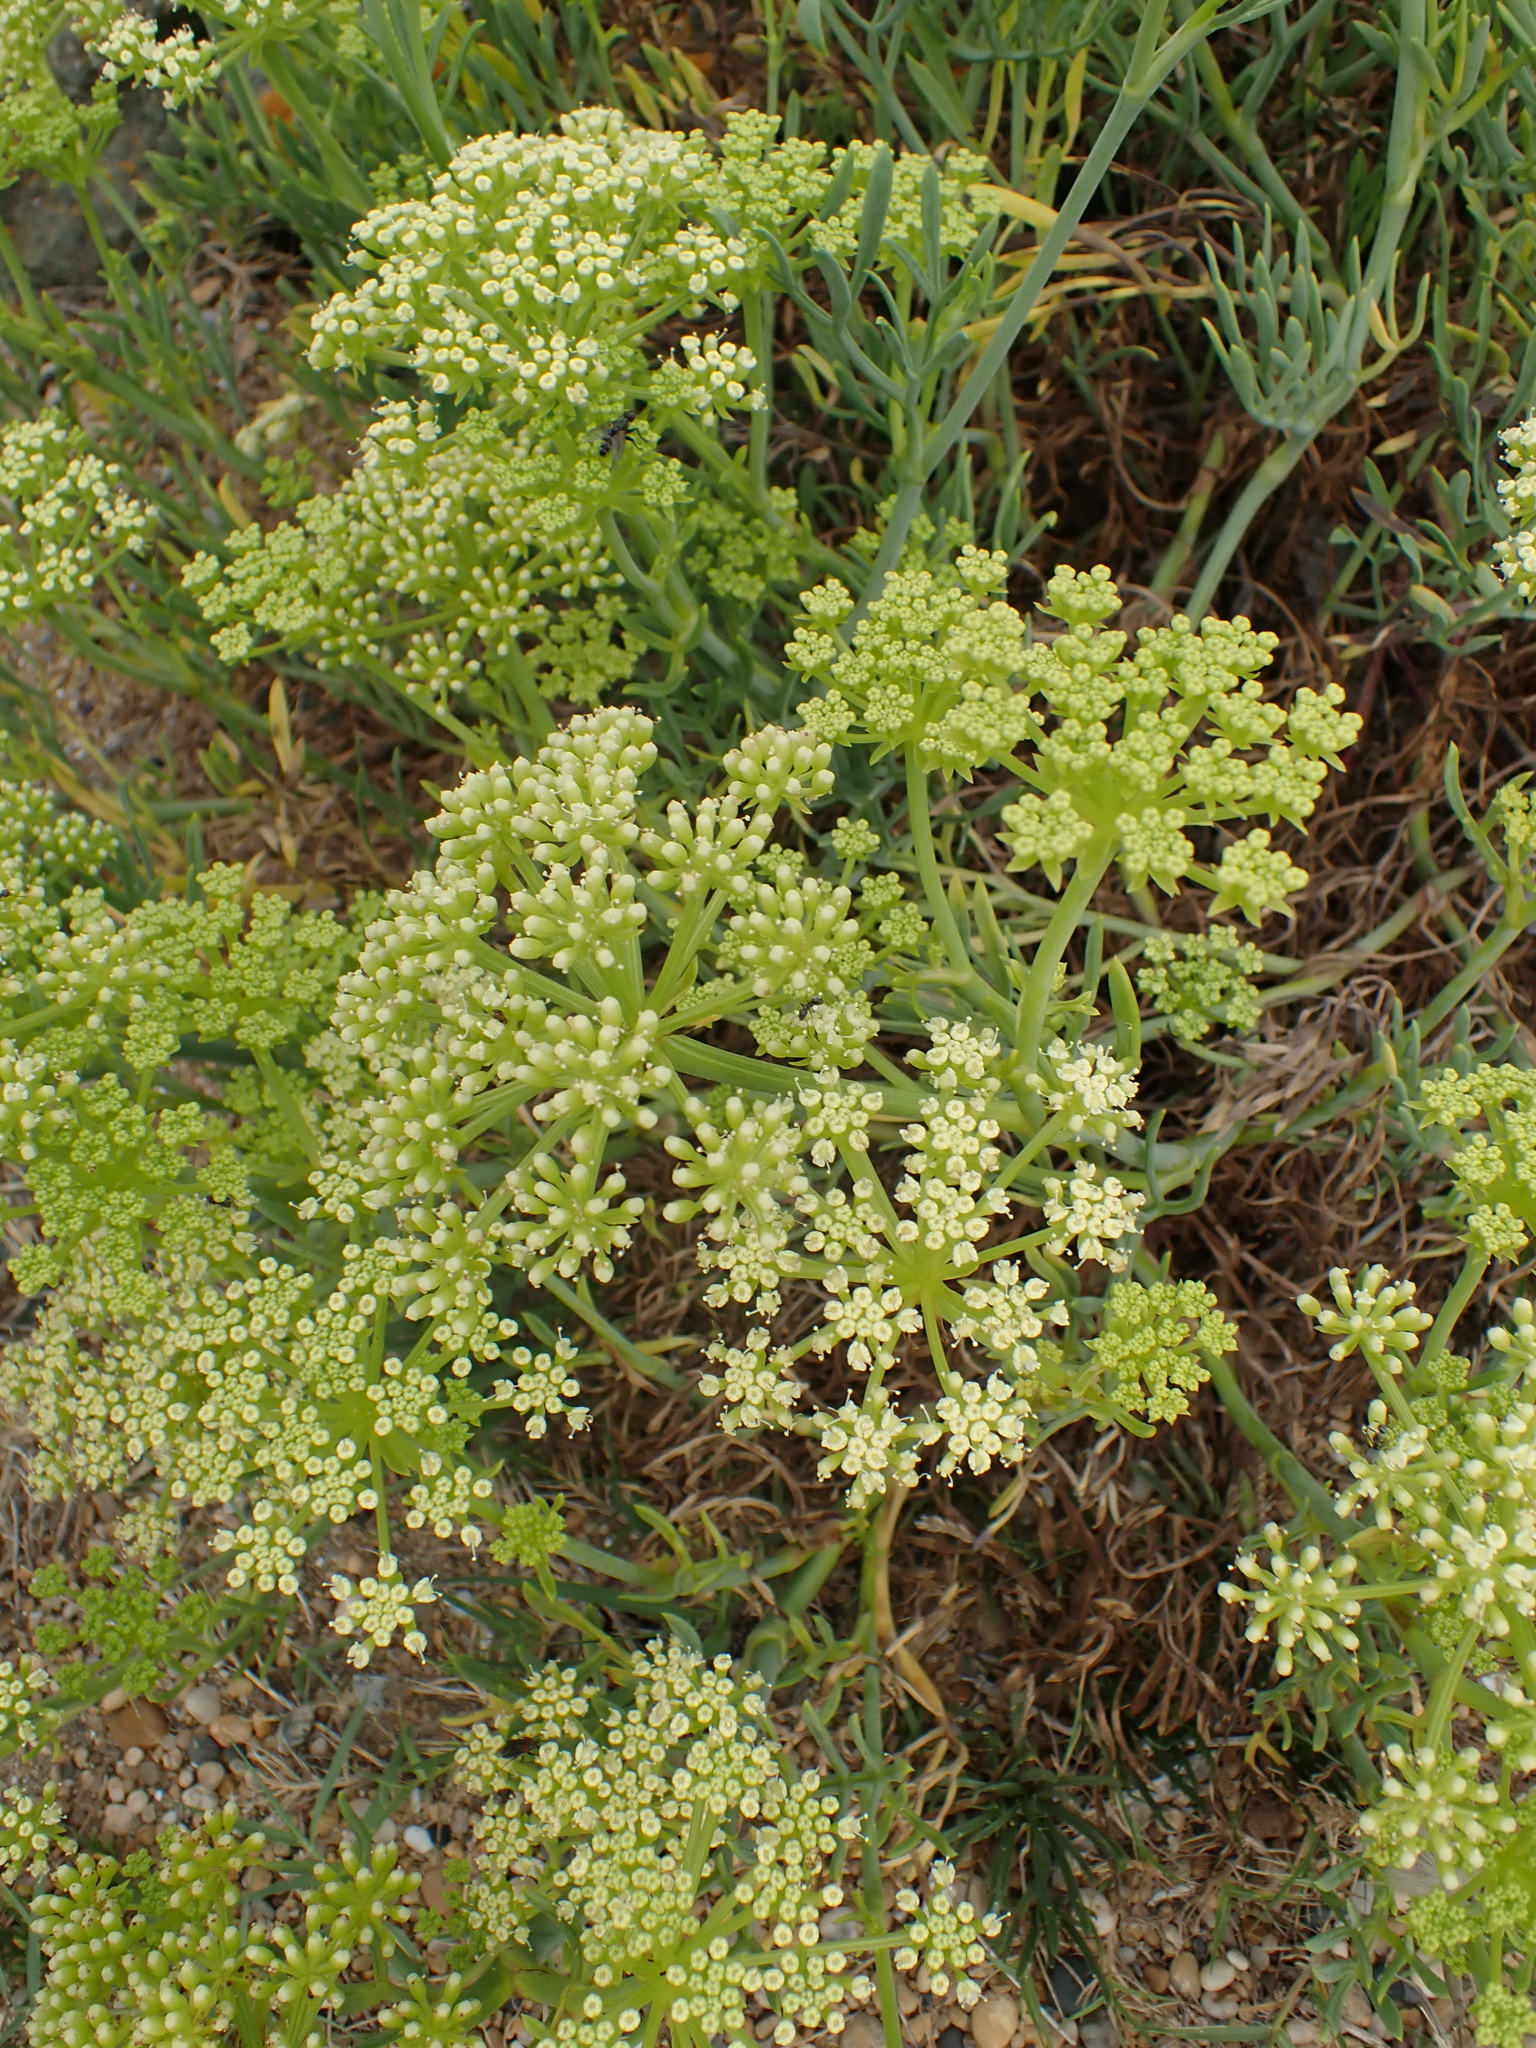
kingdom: Plantae
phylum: Tracheophyta
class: Magnoliopsida
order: Apiales
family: Apiaceae
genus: Crithmum
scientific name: Crithmum maritimum
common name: Rock samphire
